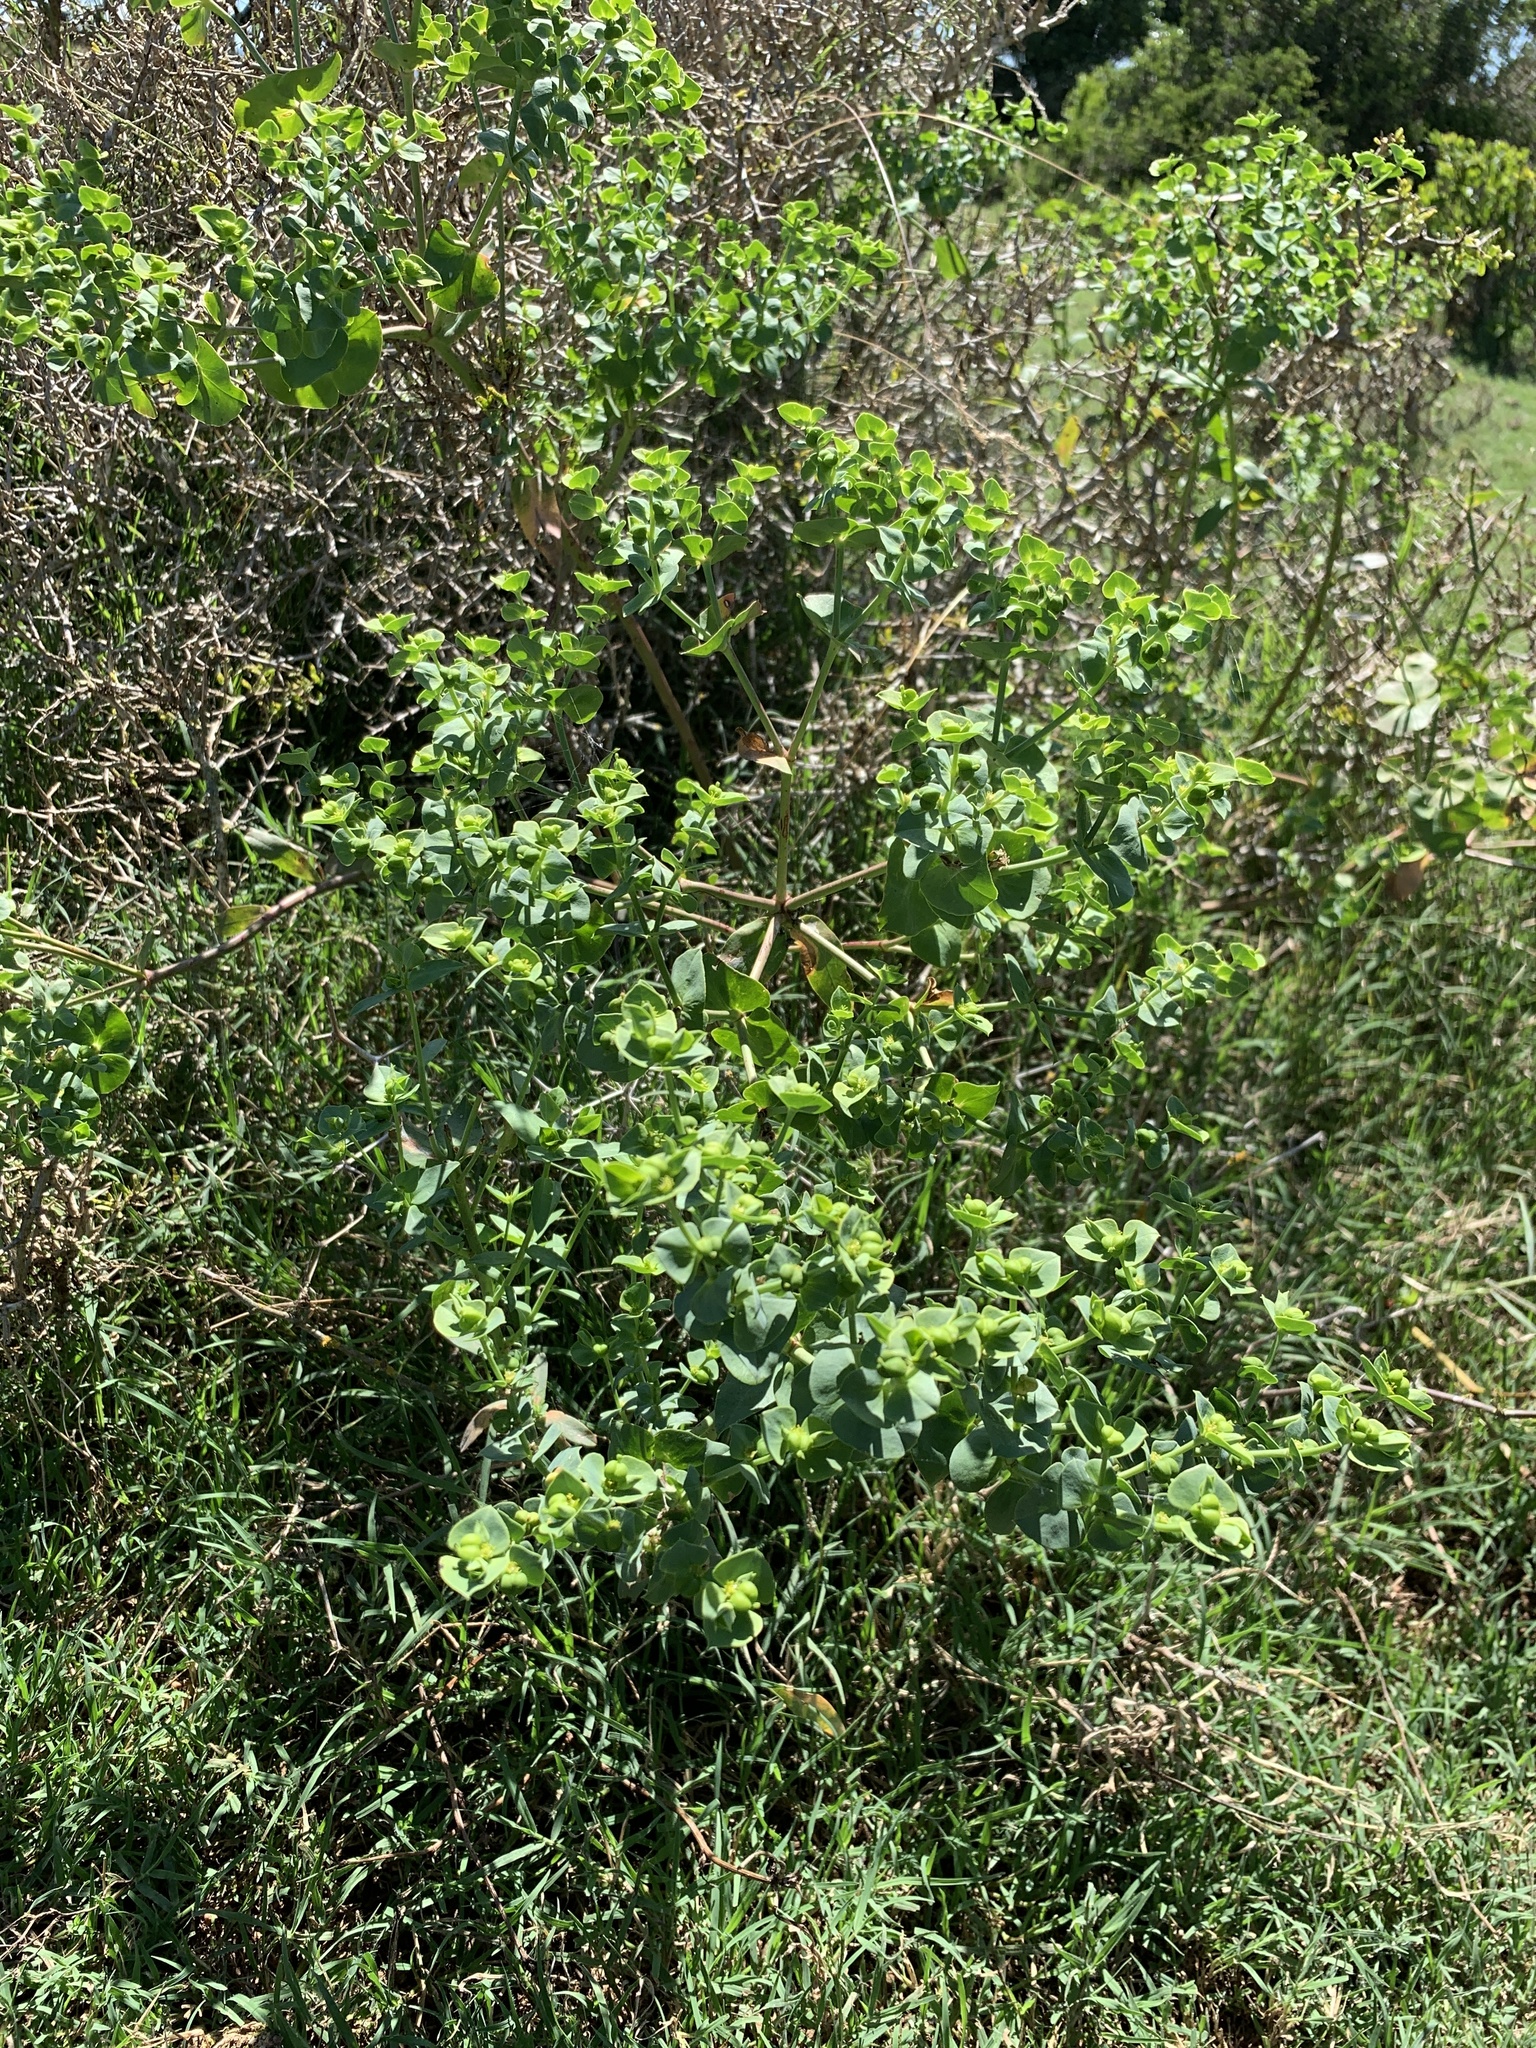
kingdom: Plantae
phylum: Tracheophyta
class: Magnoliopsida
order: Malpighiales
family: Euphorbiaceae
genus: Euphorbia
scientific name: Euphorbia terracina
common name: Geraldton carnation weed
